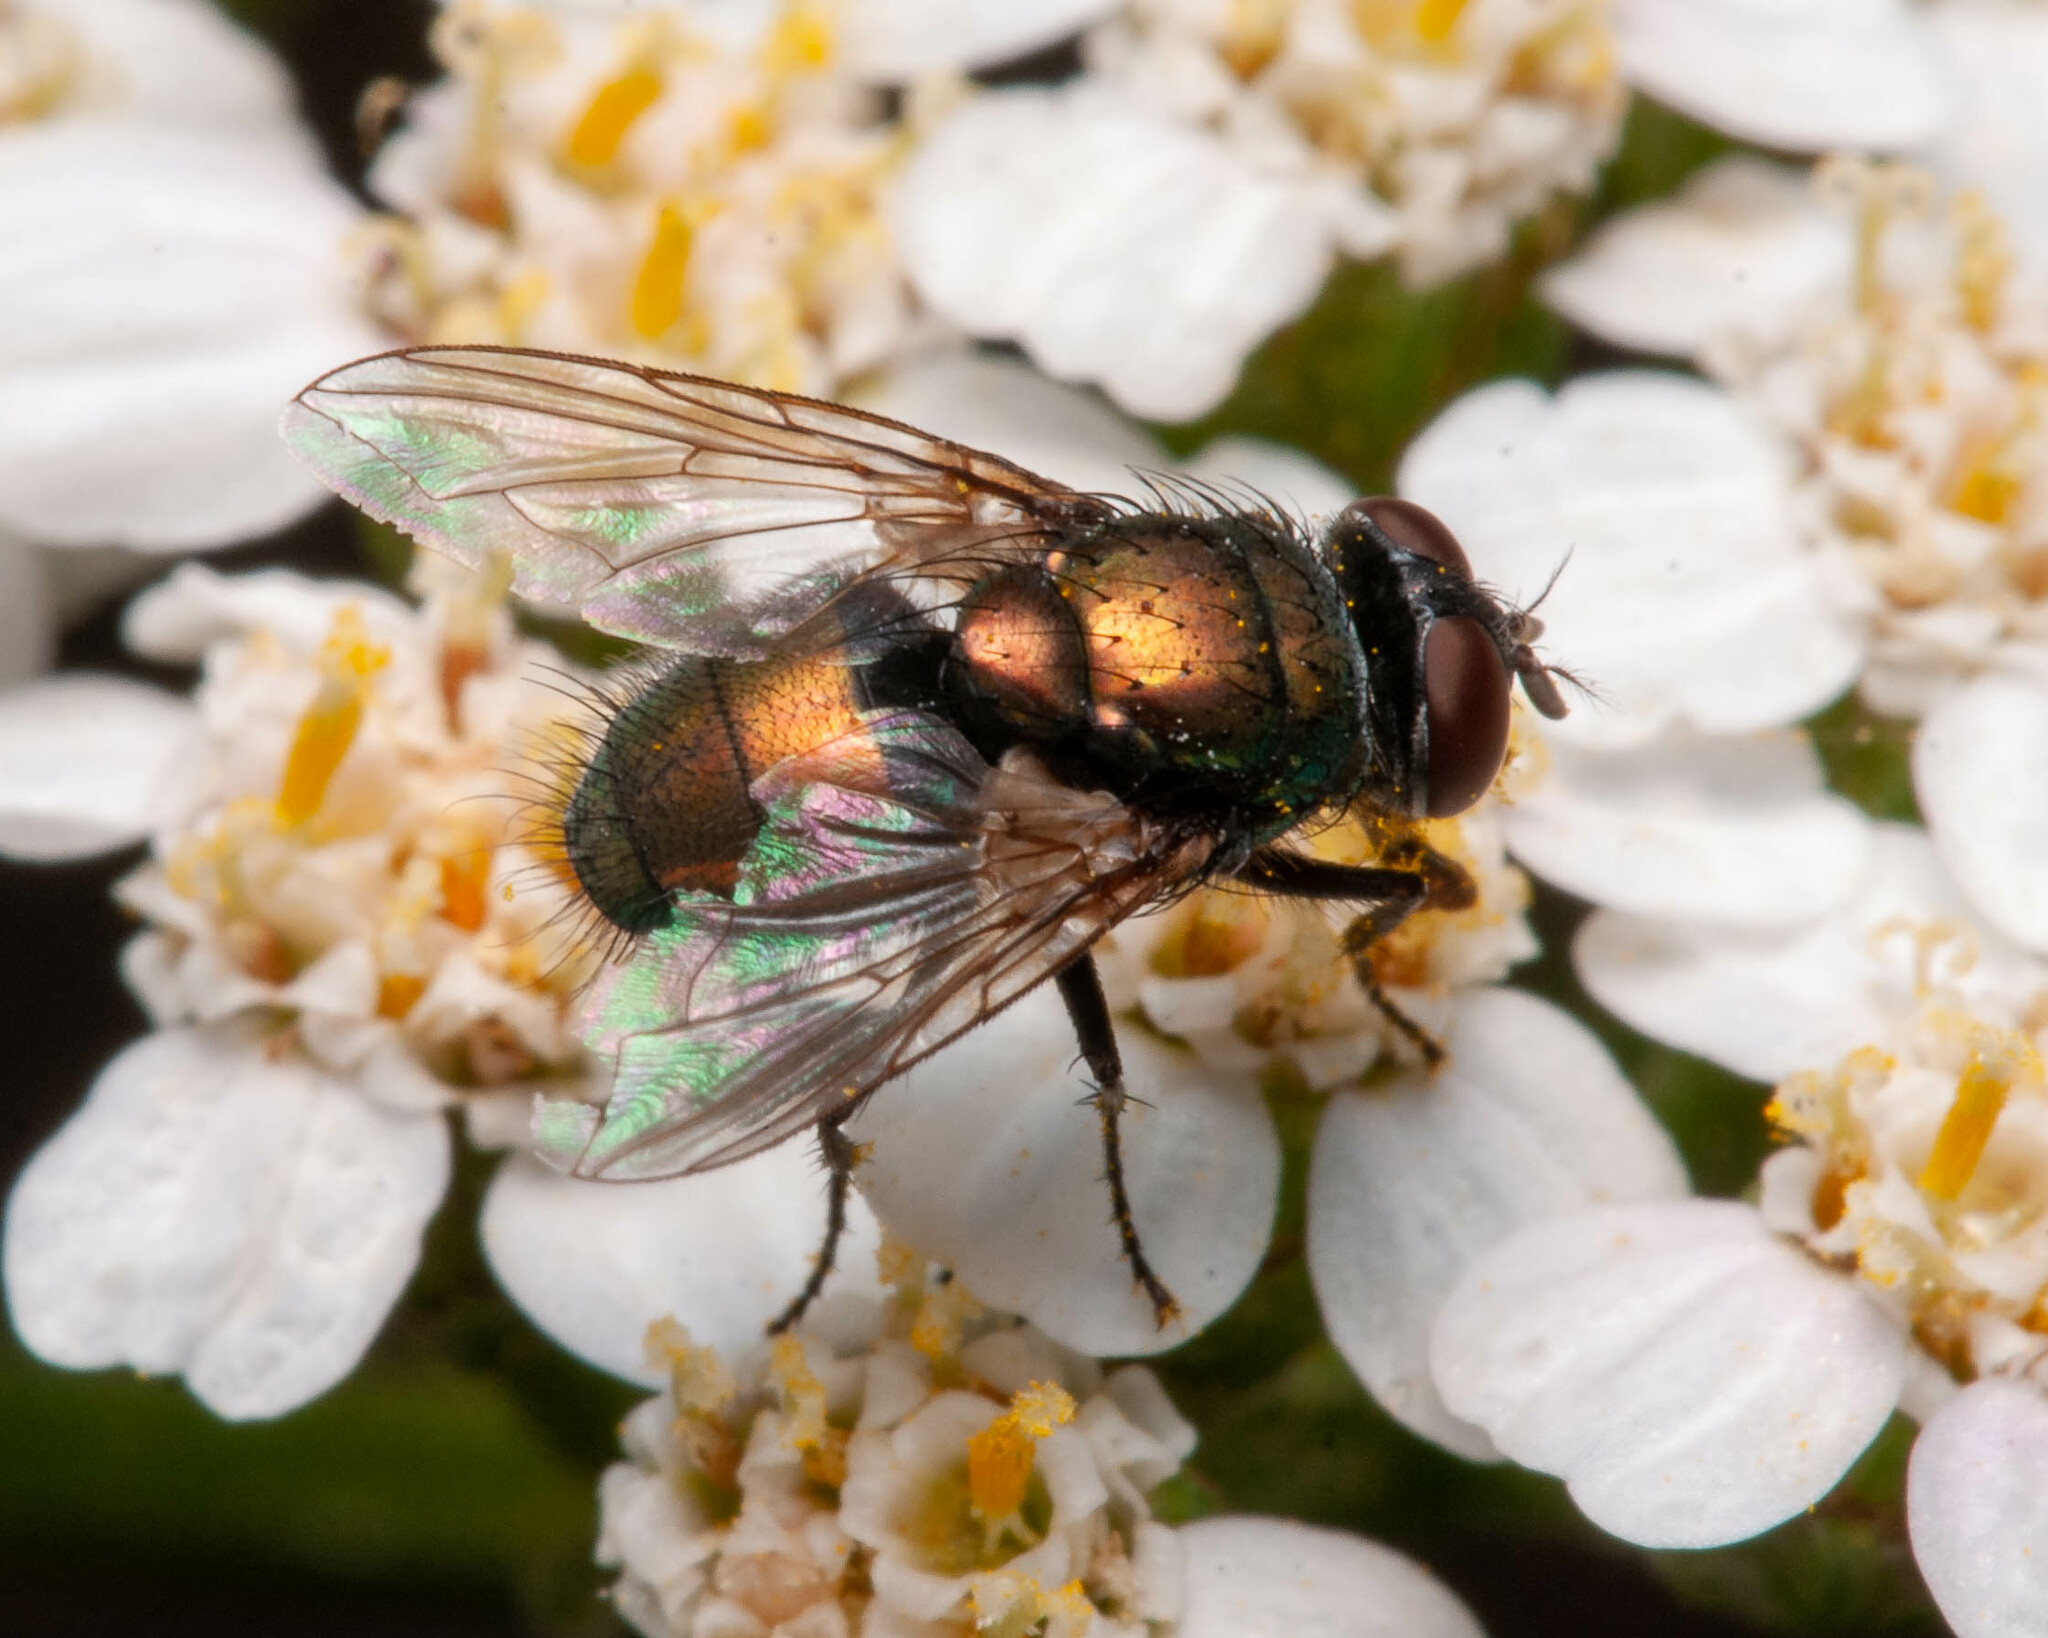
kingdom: Animalia
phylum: Arthropoda
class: Insecta
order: Diptera
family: Calliphoridae
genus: Lucilia
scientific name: Lucilia sericata
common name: Blow fly
